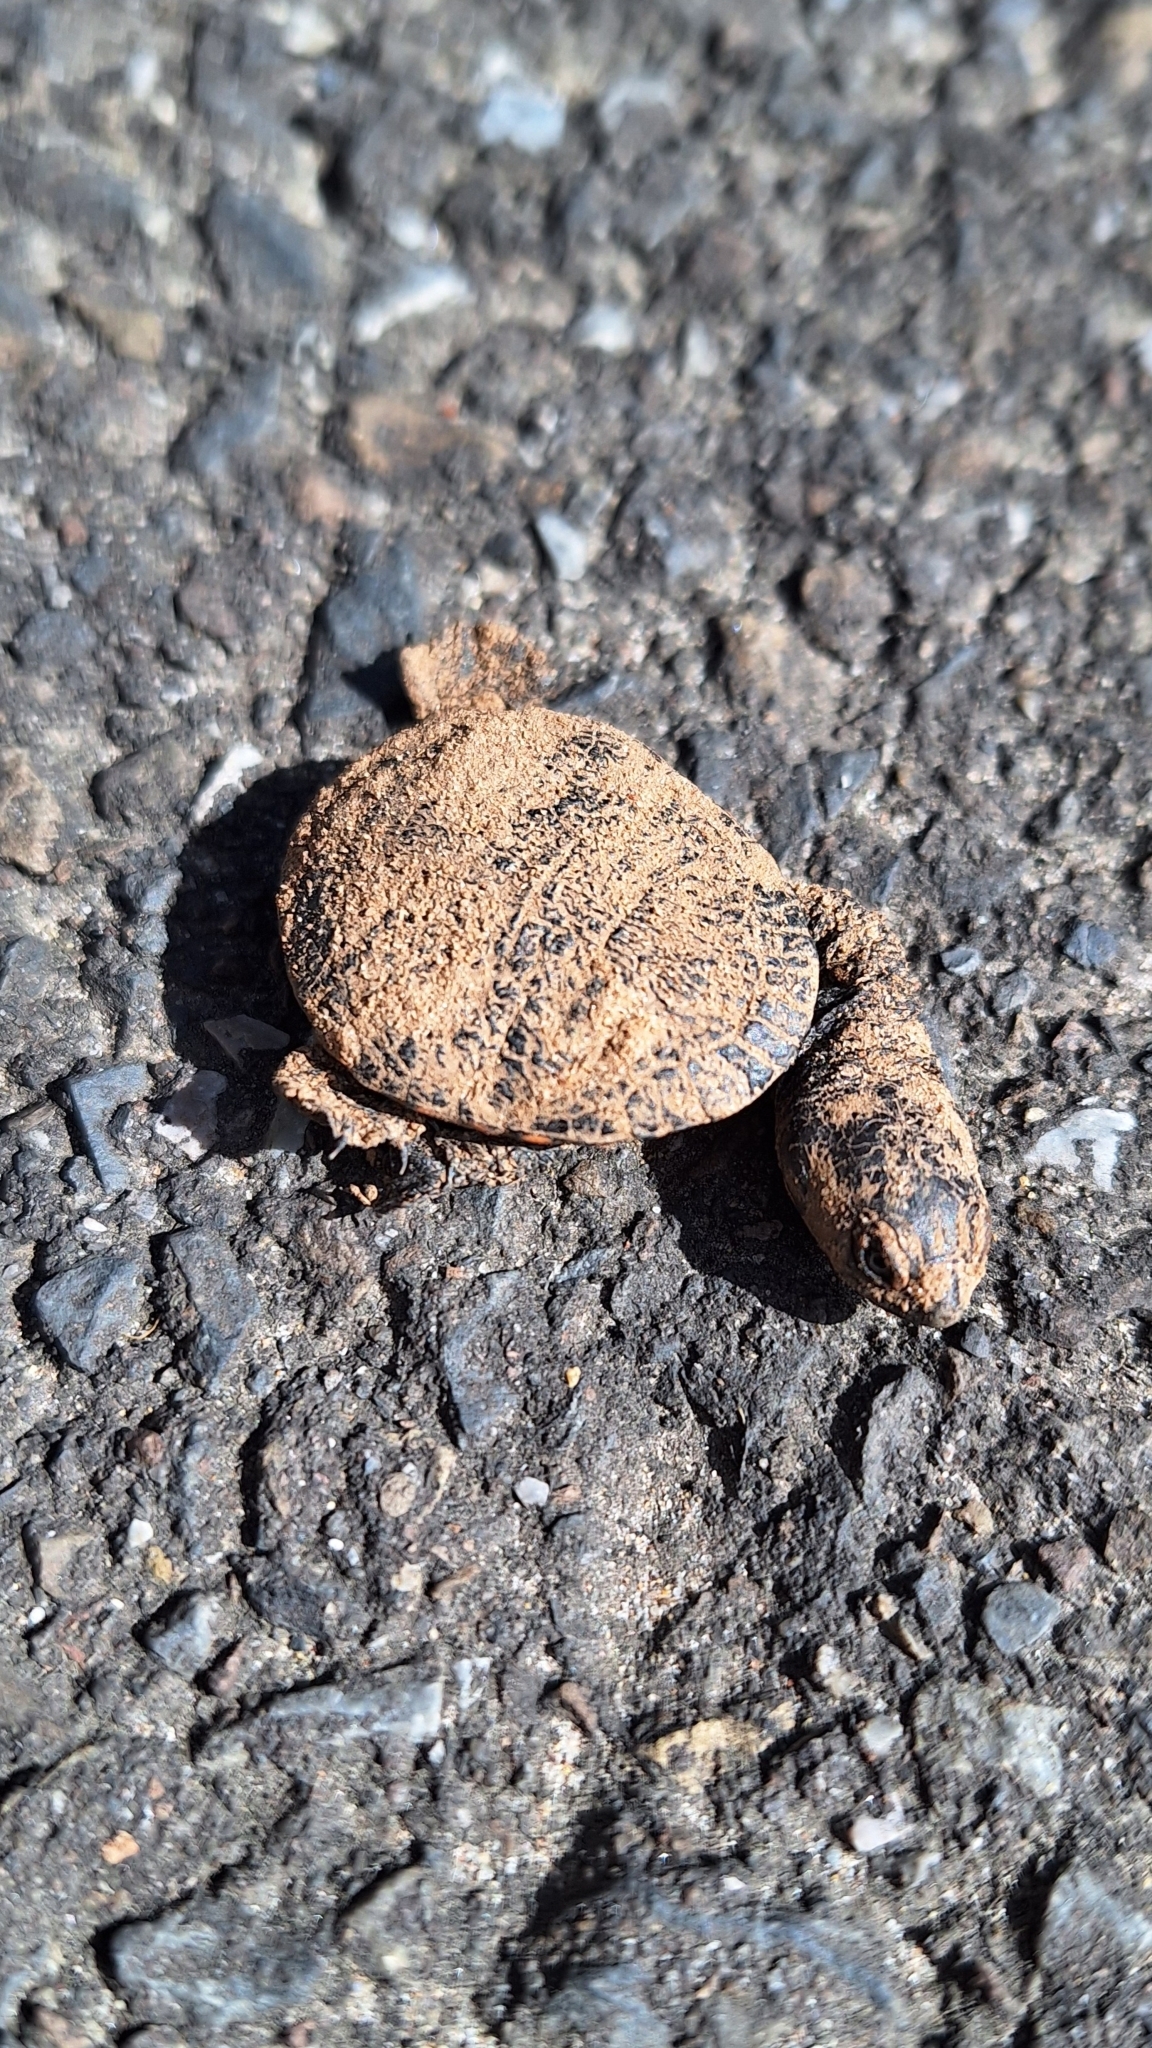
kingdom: Animalia
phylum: Chordata
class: Testudines
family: Chelidae
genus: Chelodina
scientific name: Chelodina longicollis
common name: Eastern snake-necked turtle
